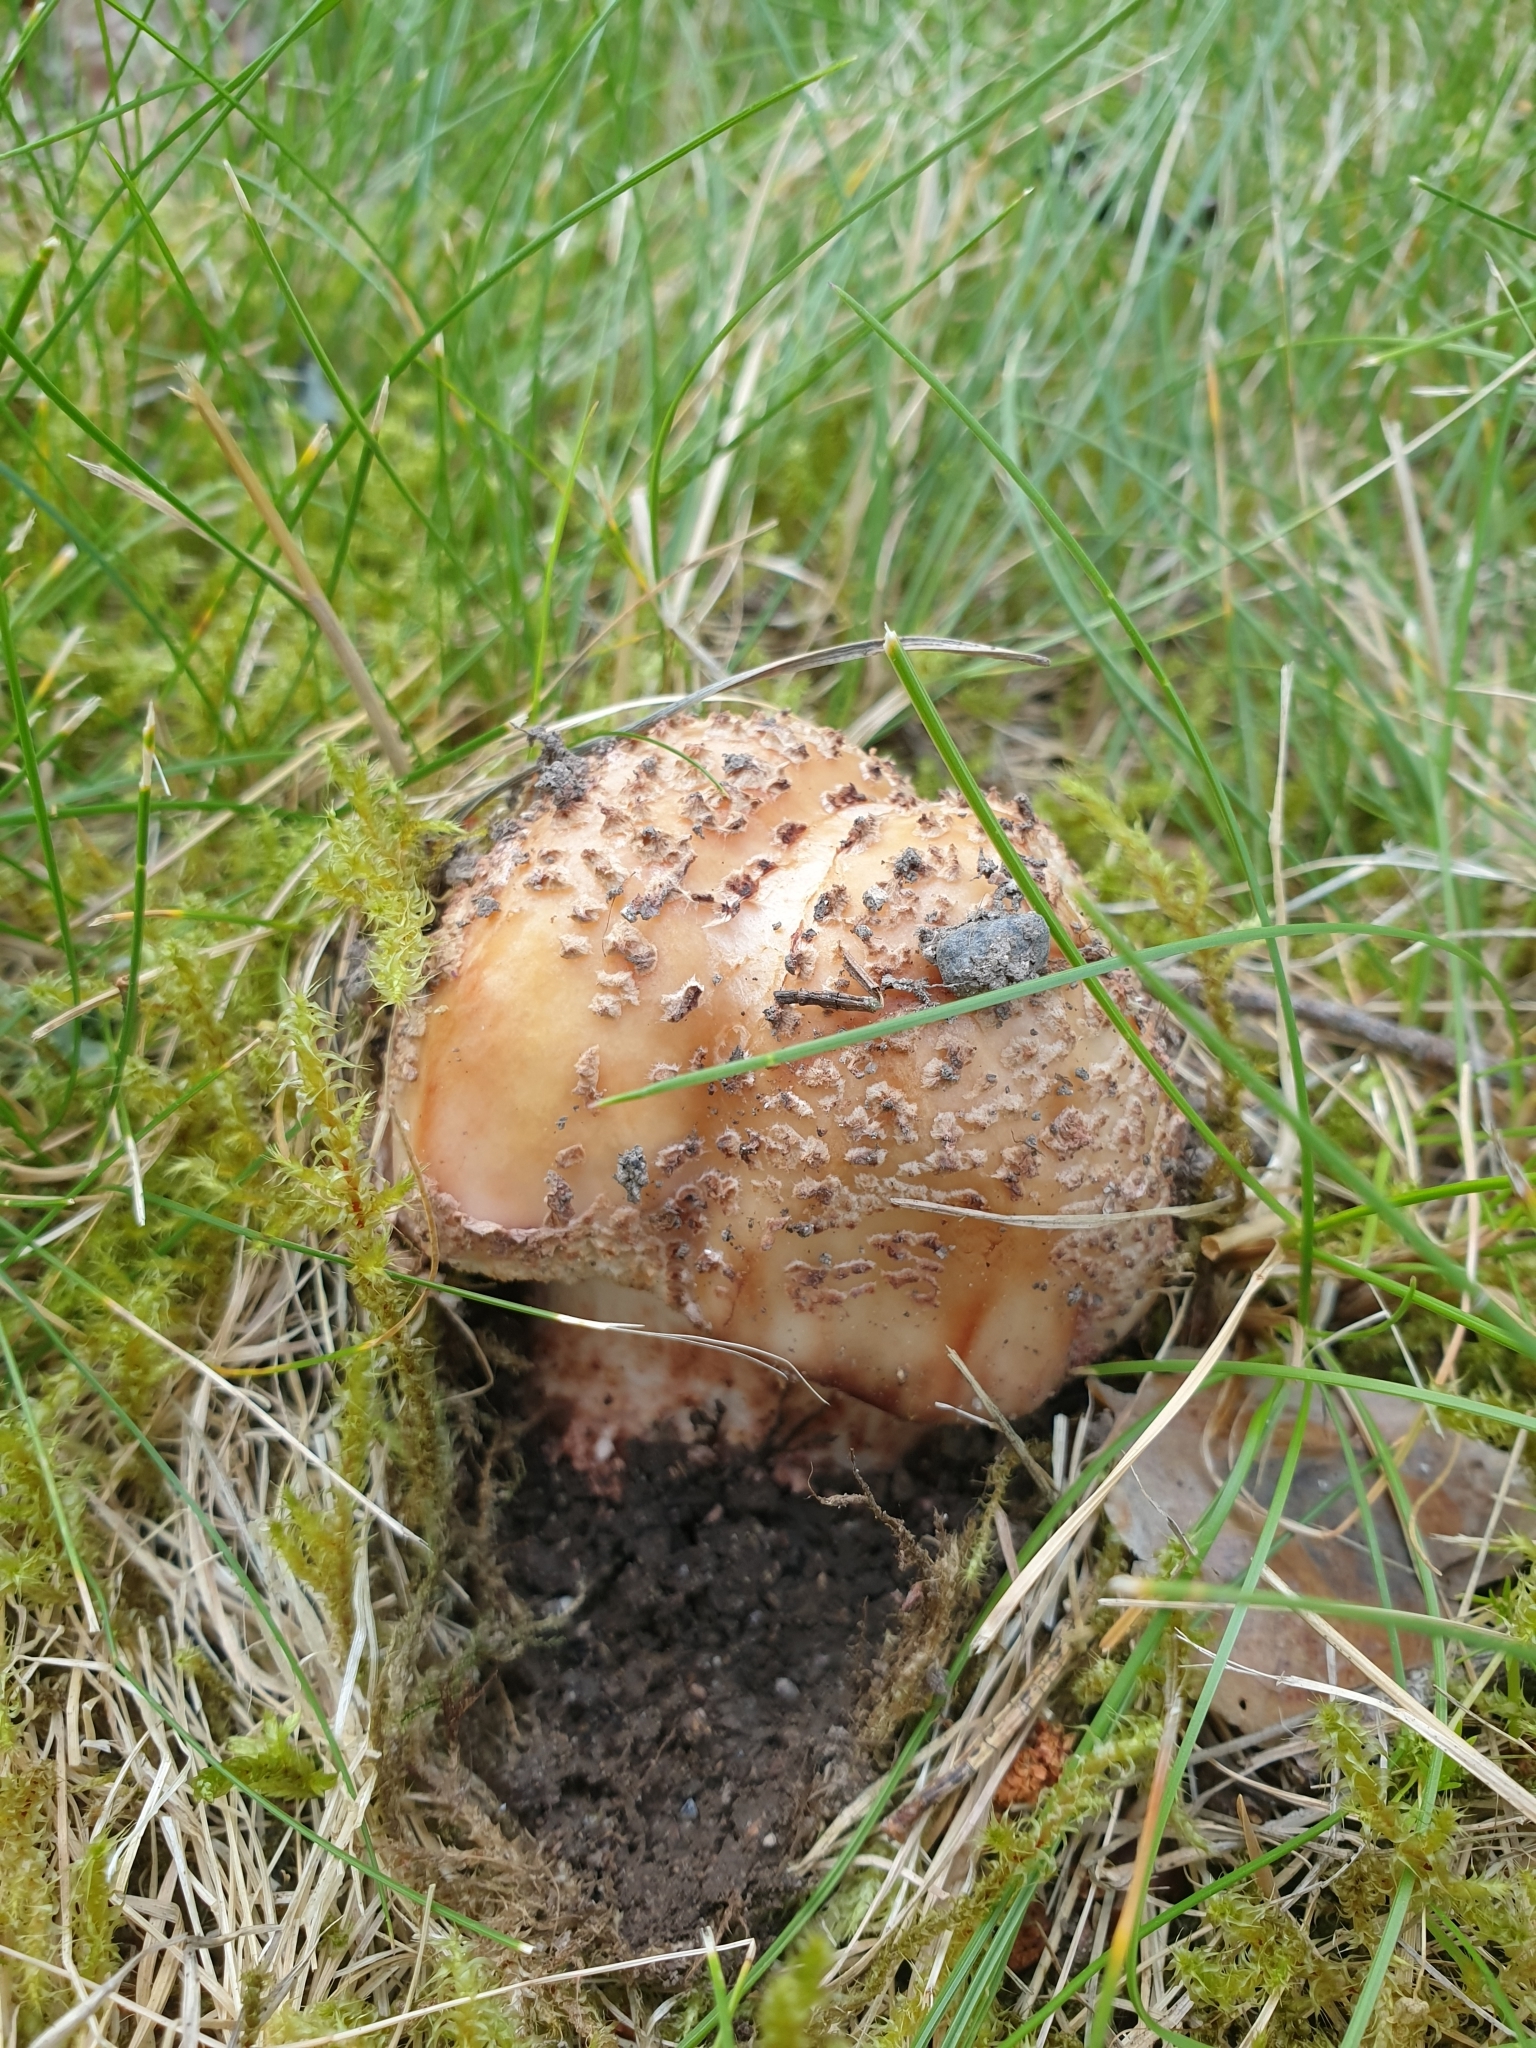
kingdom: Fungi
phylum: Basidiomycota
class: Agaricomycetes
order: Agaricales
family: Amanitaceae
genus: Amanita
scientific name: Amanita rubescens
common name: Blusher
